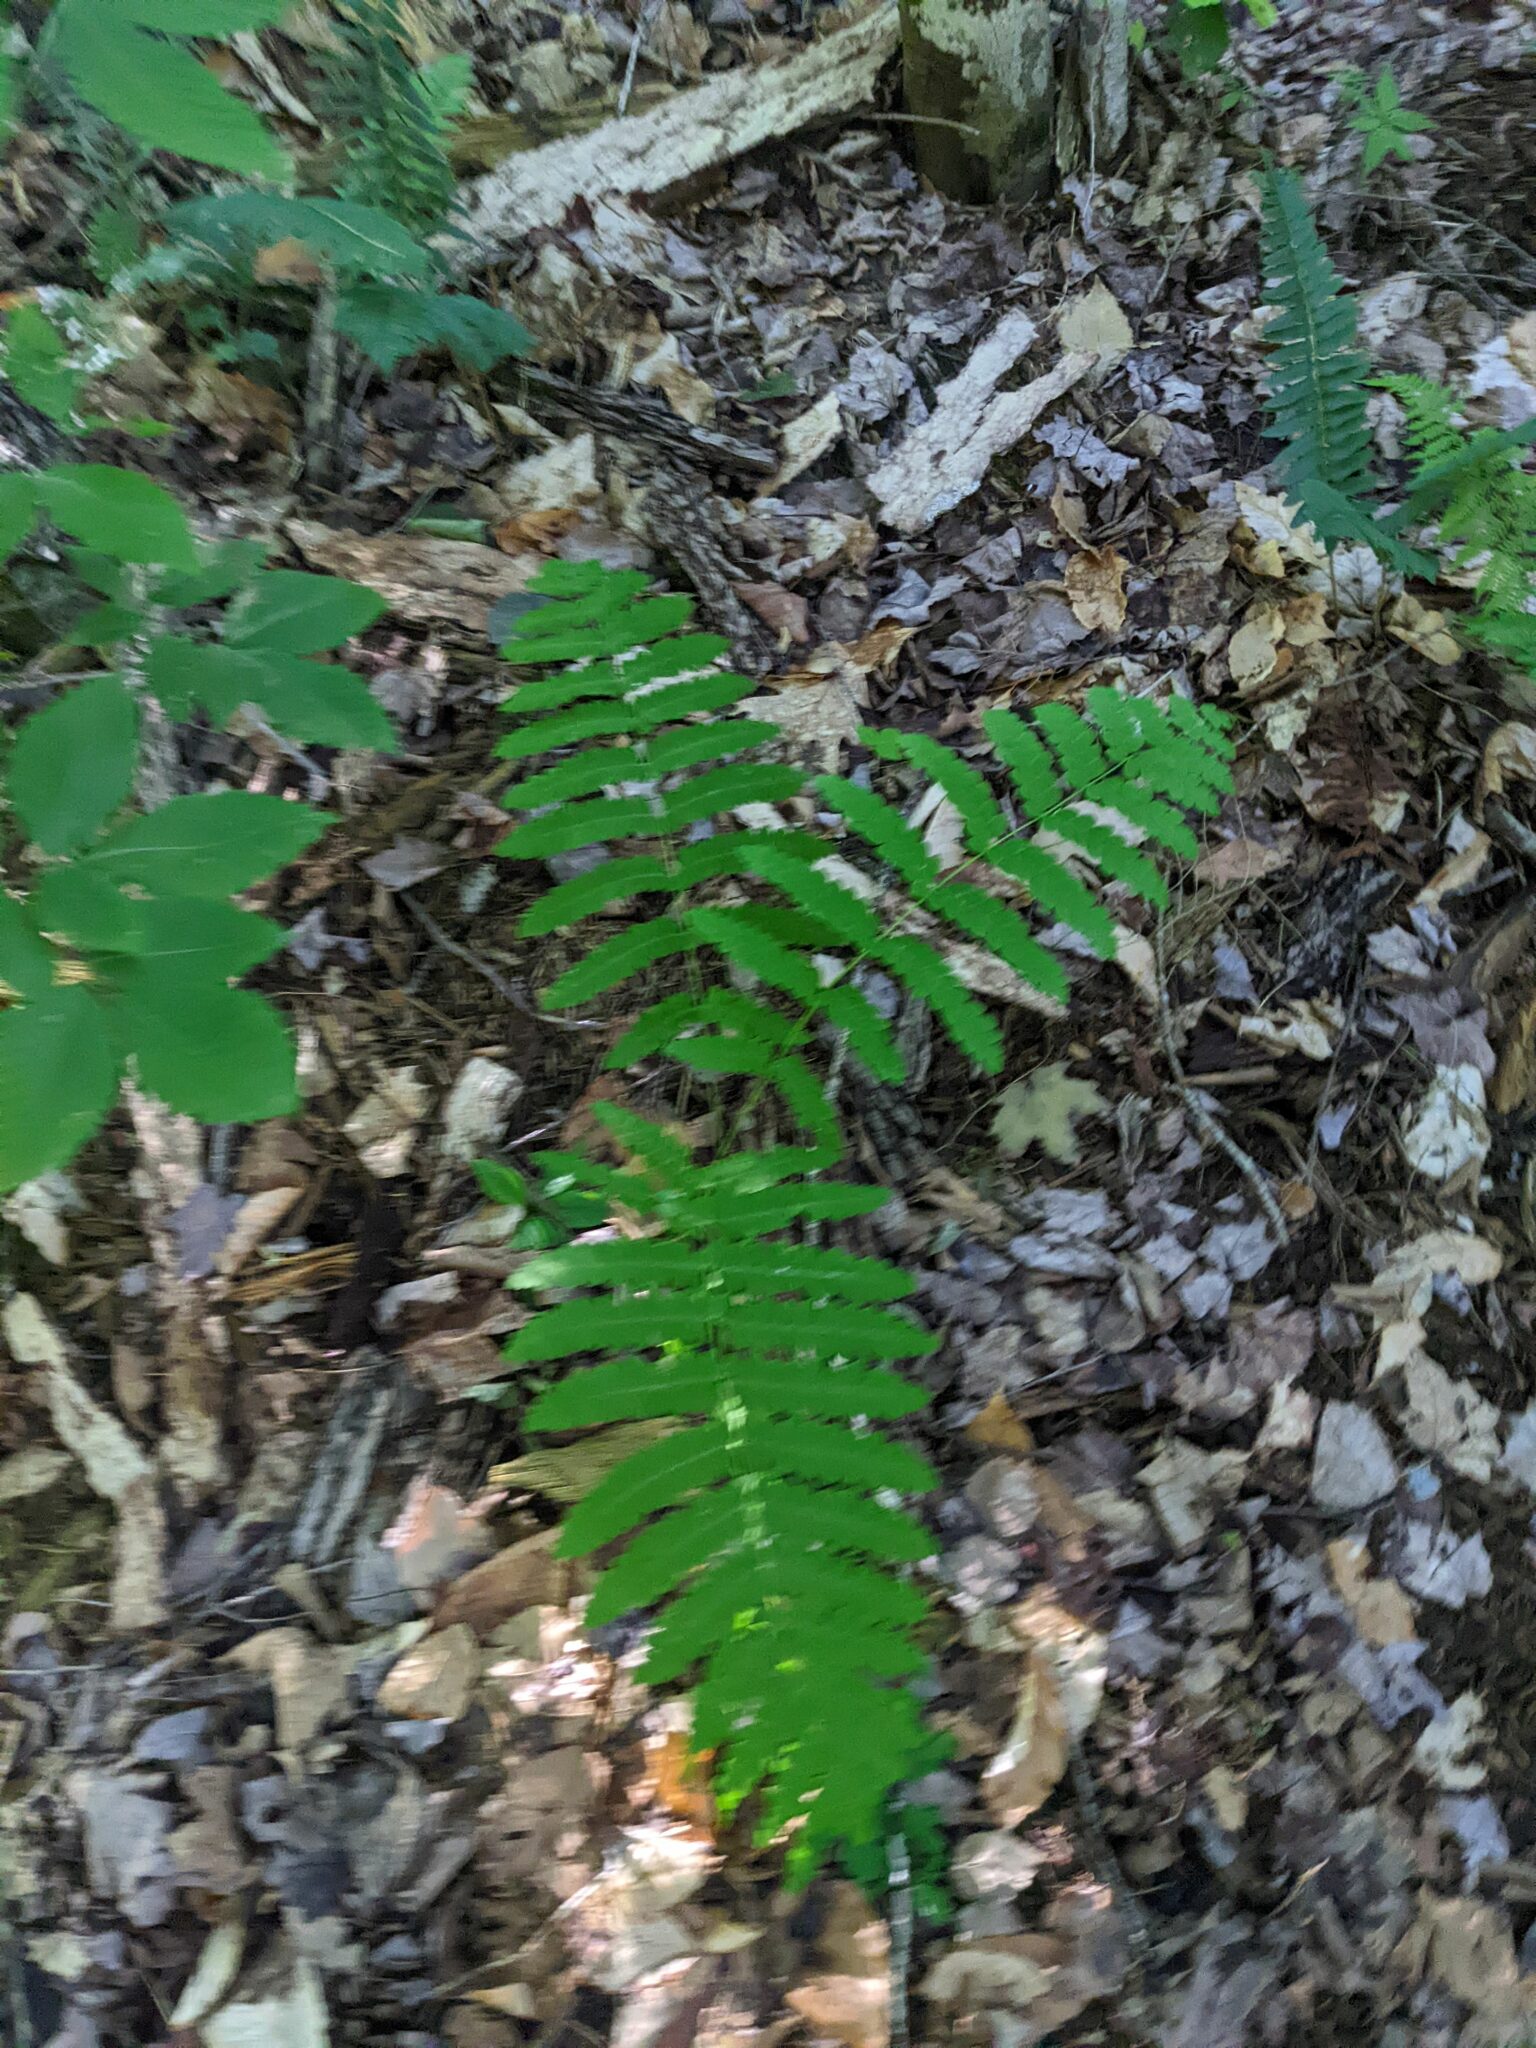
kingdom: Plantae
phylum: Tracheophyta
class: Polypodiopsida
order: Osmundales
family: Osmundaceae
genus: Claytosmunda
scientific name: Claytosmunda claytoniana
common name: Clayton's fern
